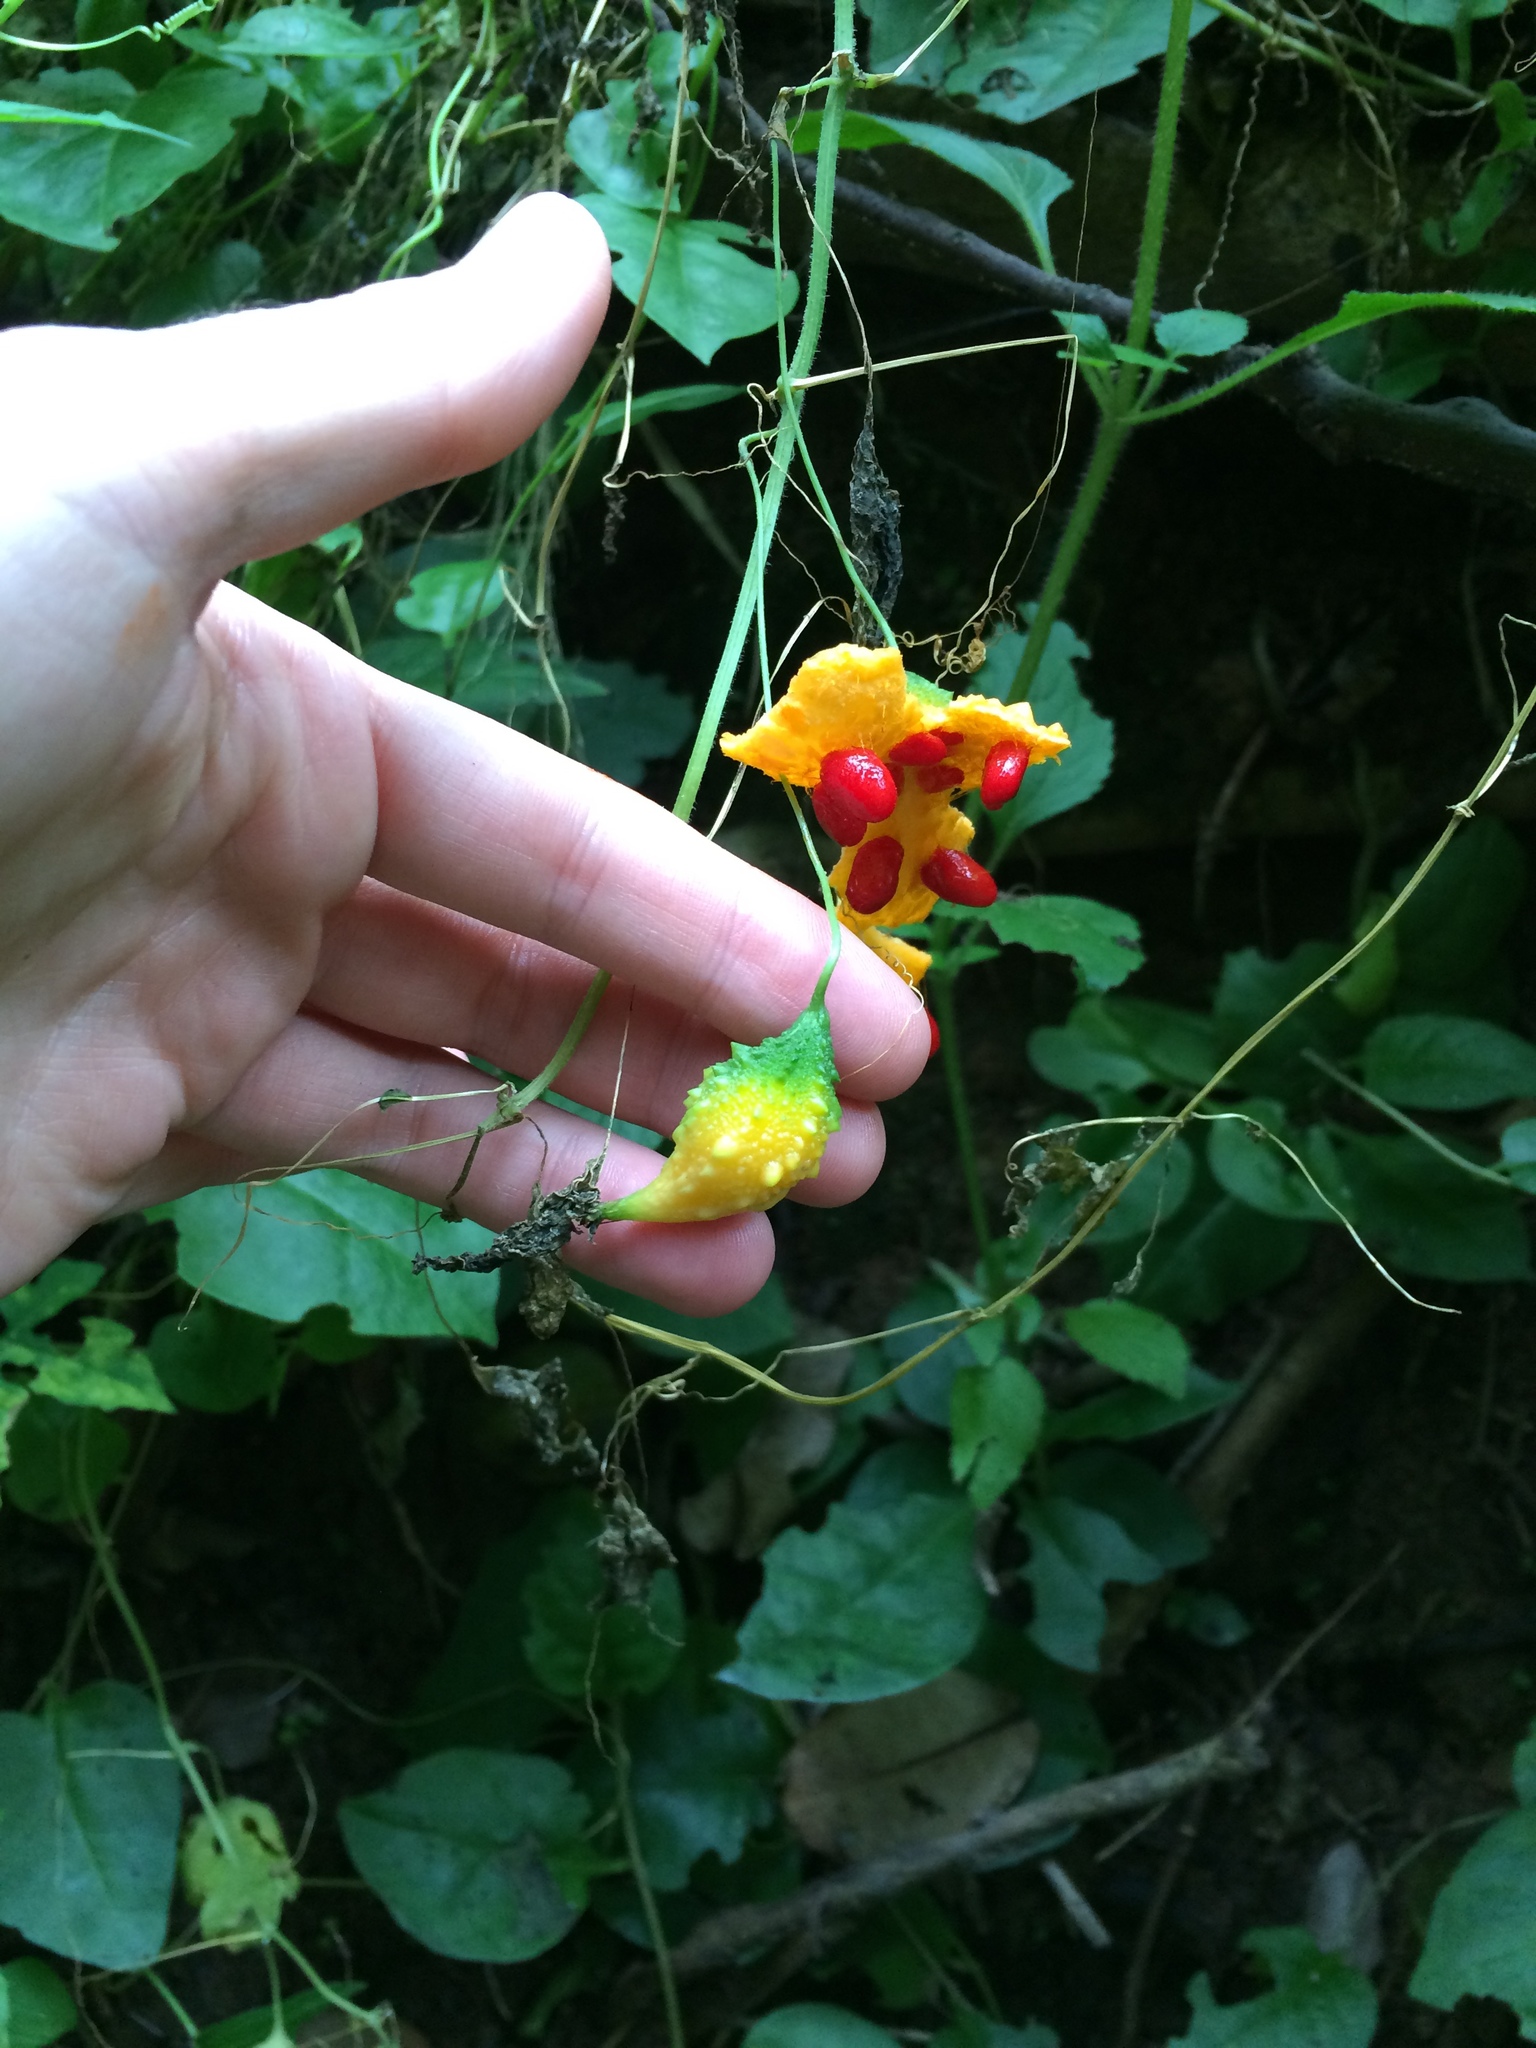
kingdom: Plantae
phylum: Tracheophyta
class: Magnoliopsida
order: Cucurbitales
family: Cucurbitaceae
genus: Momordica
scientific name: Momordica charantia
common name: Balsampear
